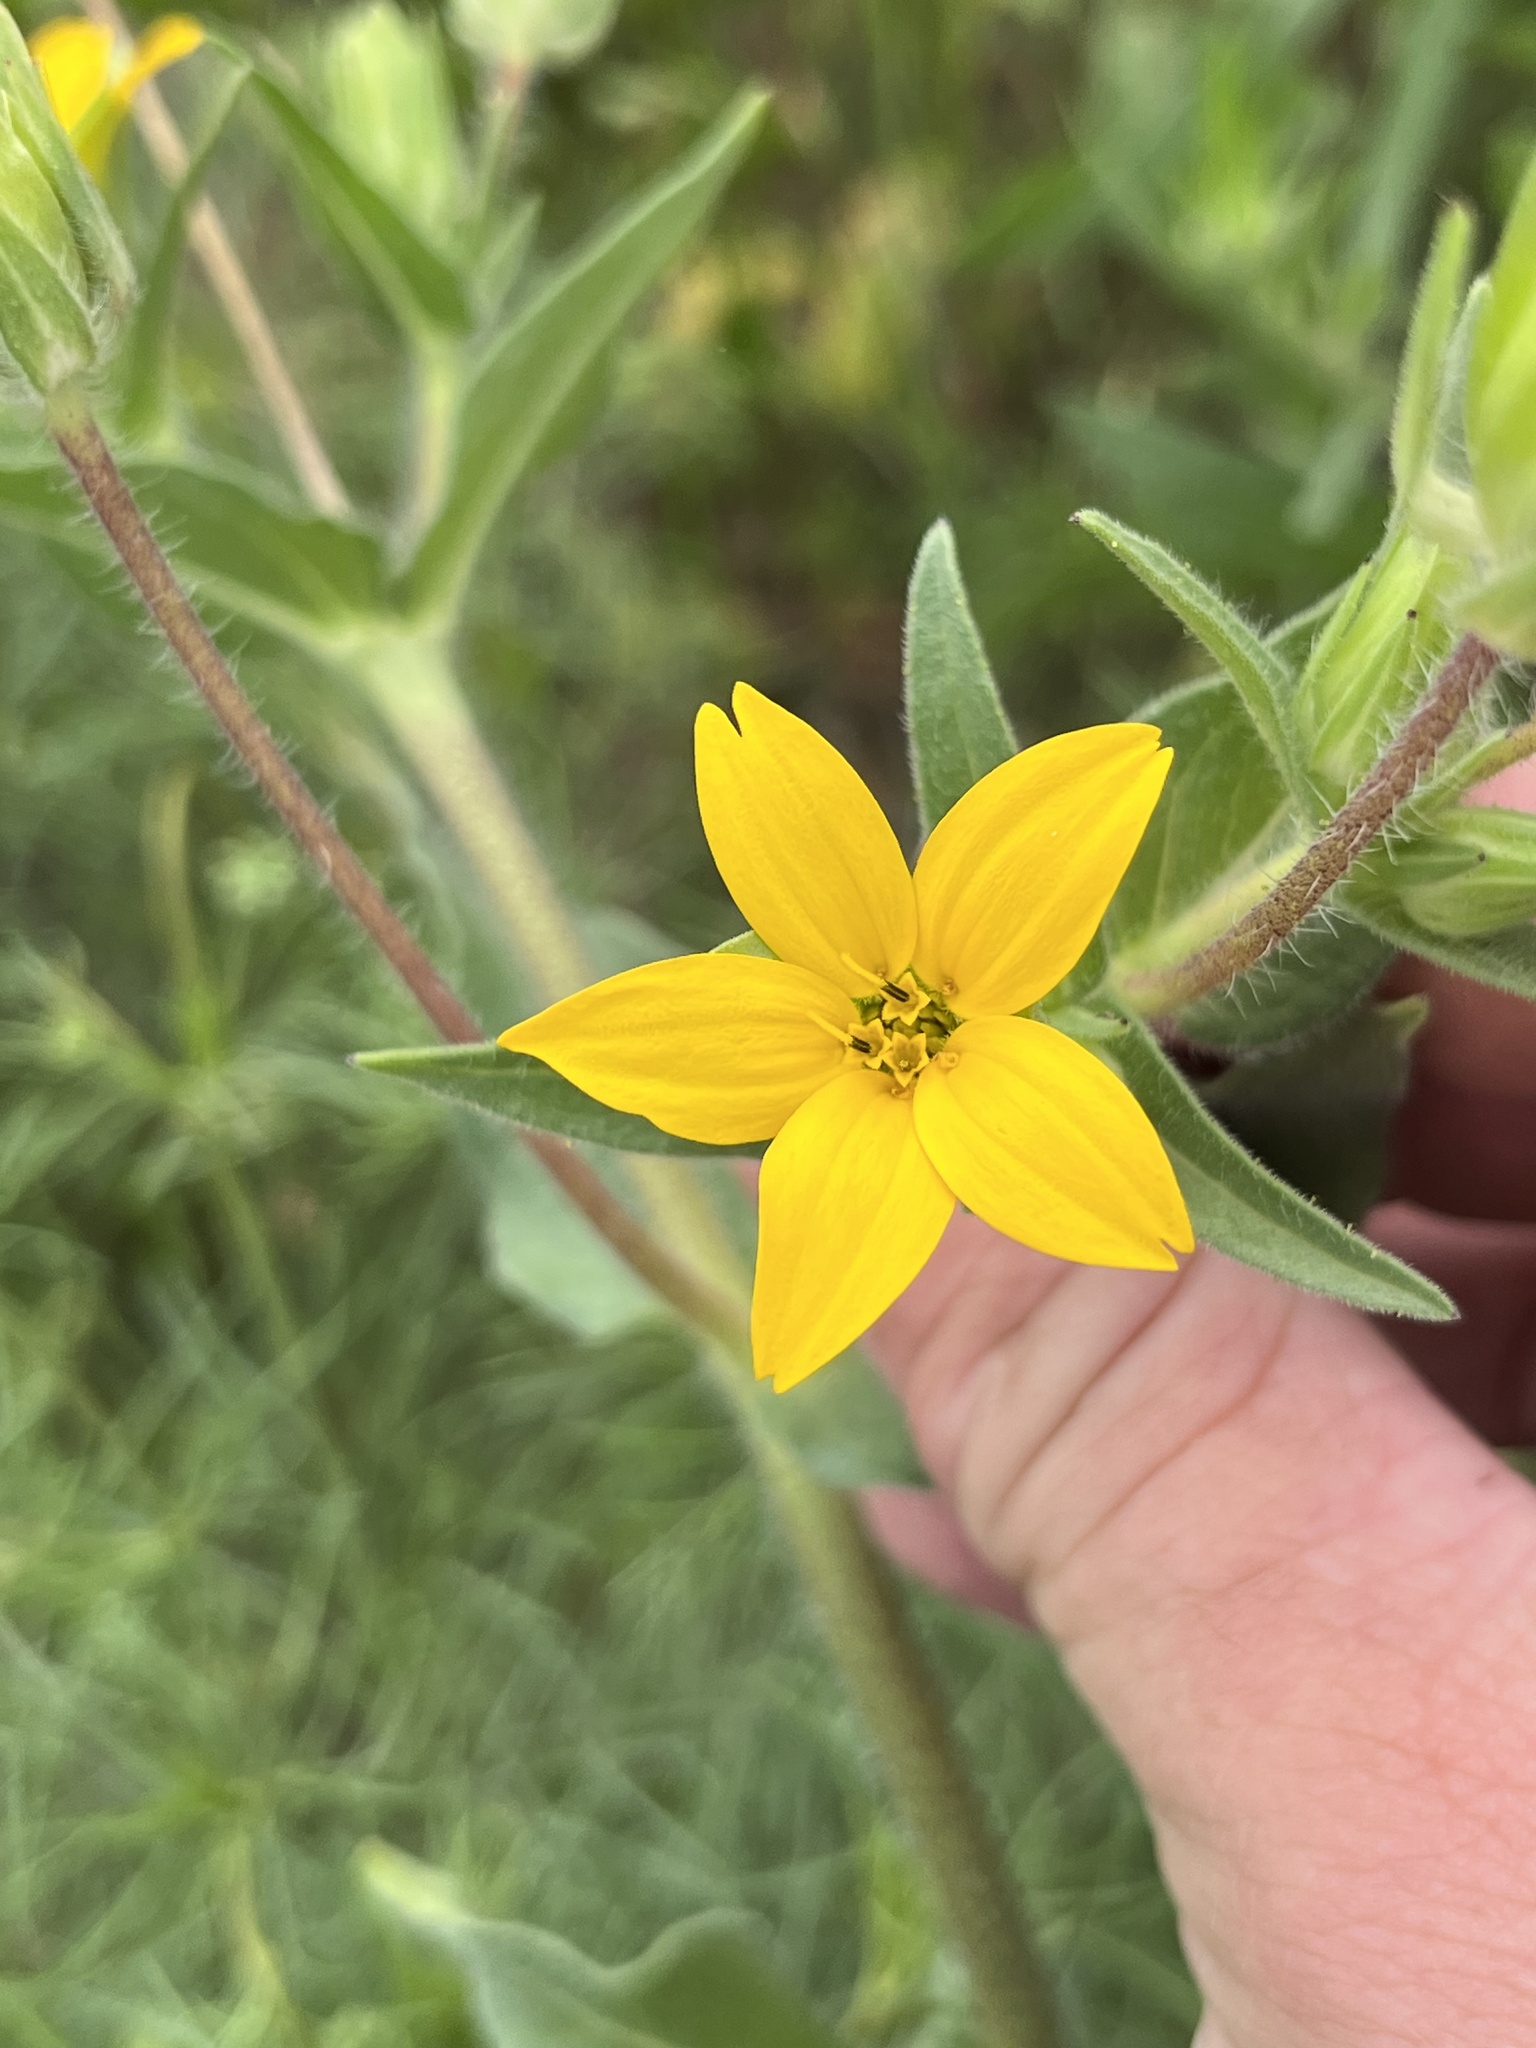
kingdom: Plantae
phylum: Tracheophyta
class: Magnoliopsida
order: Asterales
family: Asteraceae
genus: Lindheimera
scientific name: Lindheimera texana
